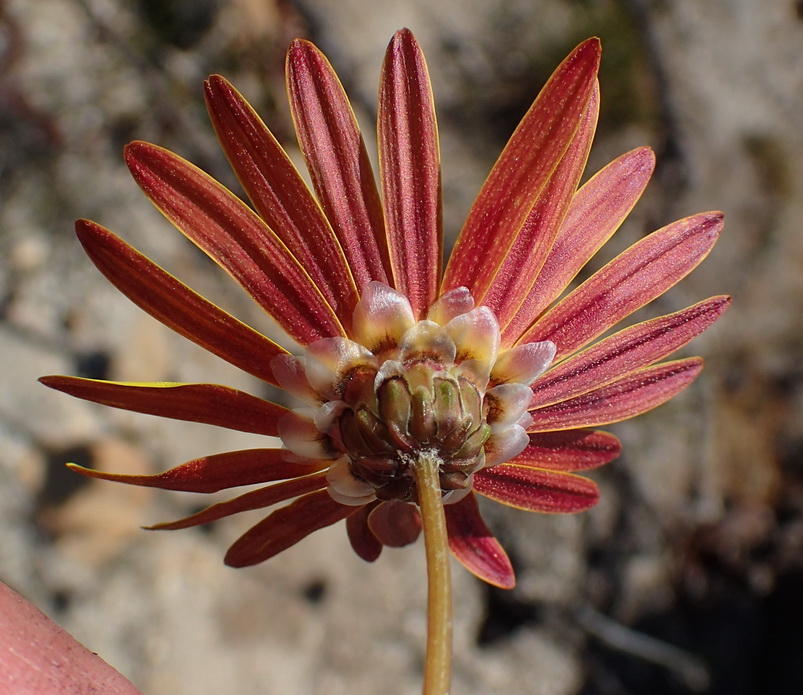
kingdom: Plantae
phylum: Tracheophyta
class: Magnoliopsida
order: Asterales
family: Asteraceae
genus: Ursinia
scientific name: Ursinia paleacea
